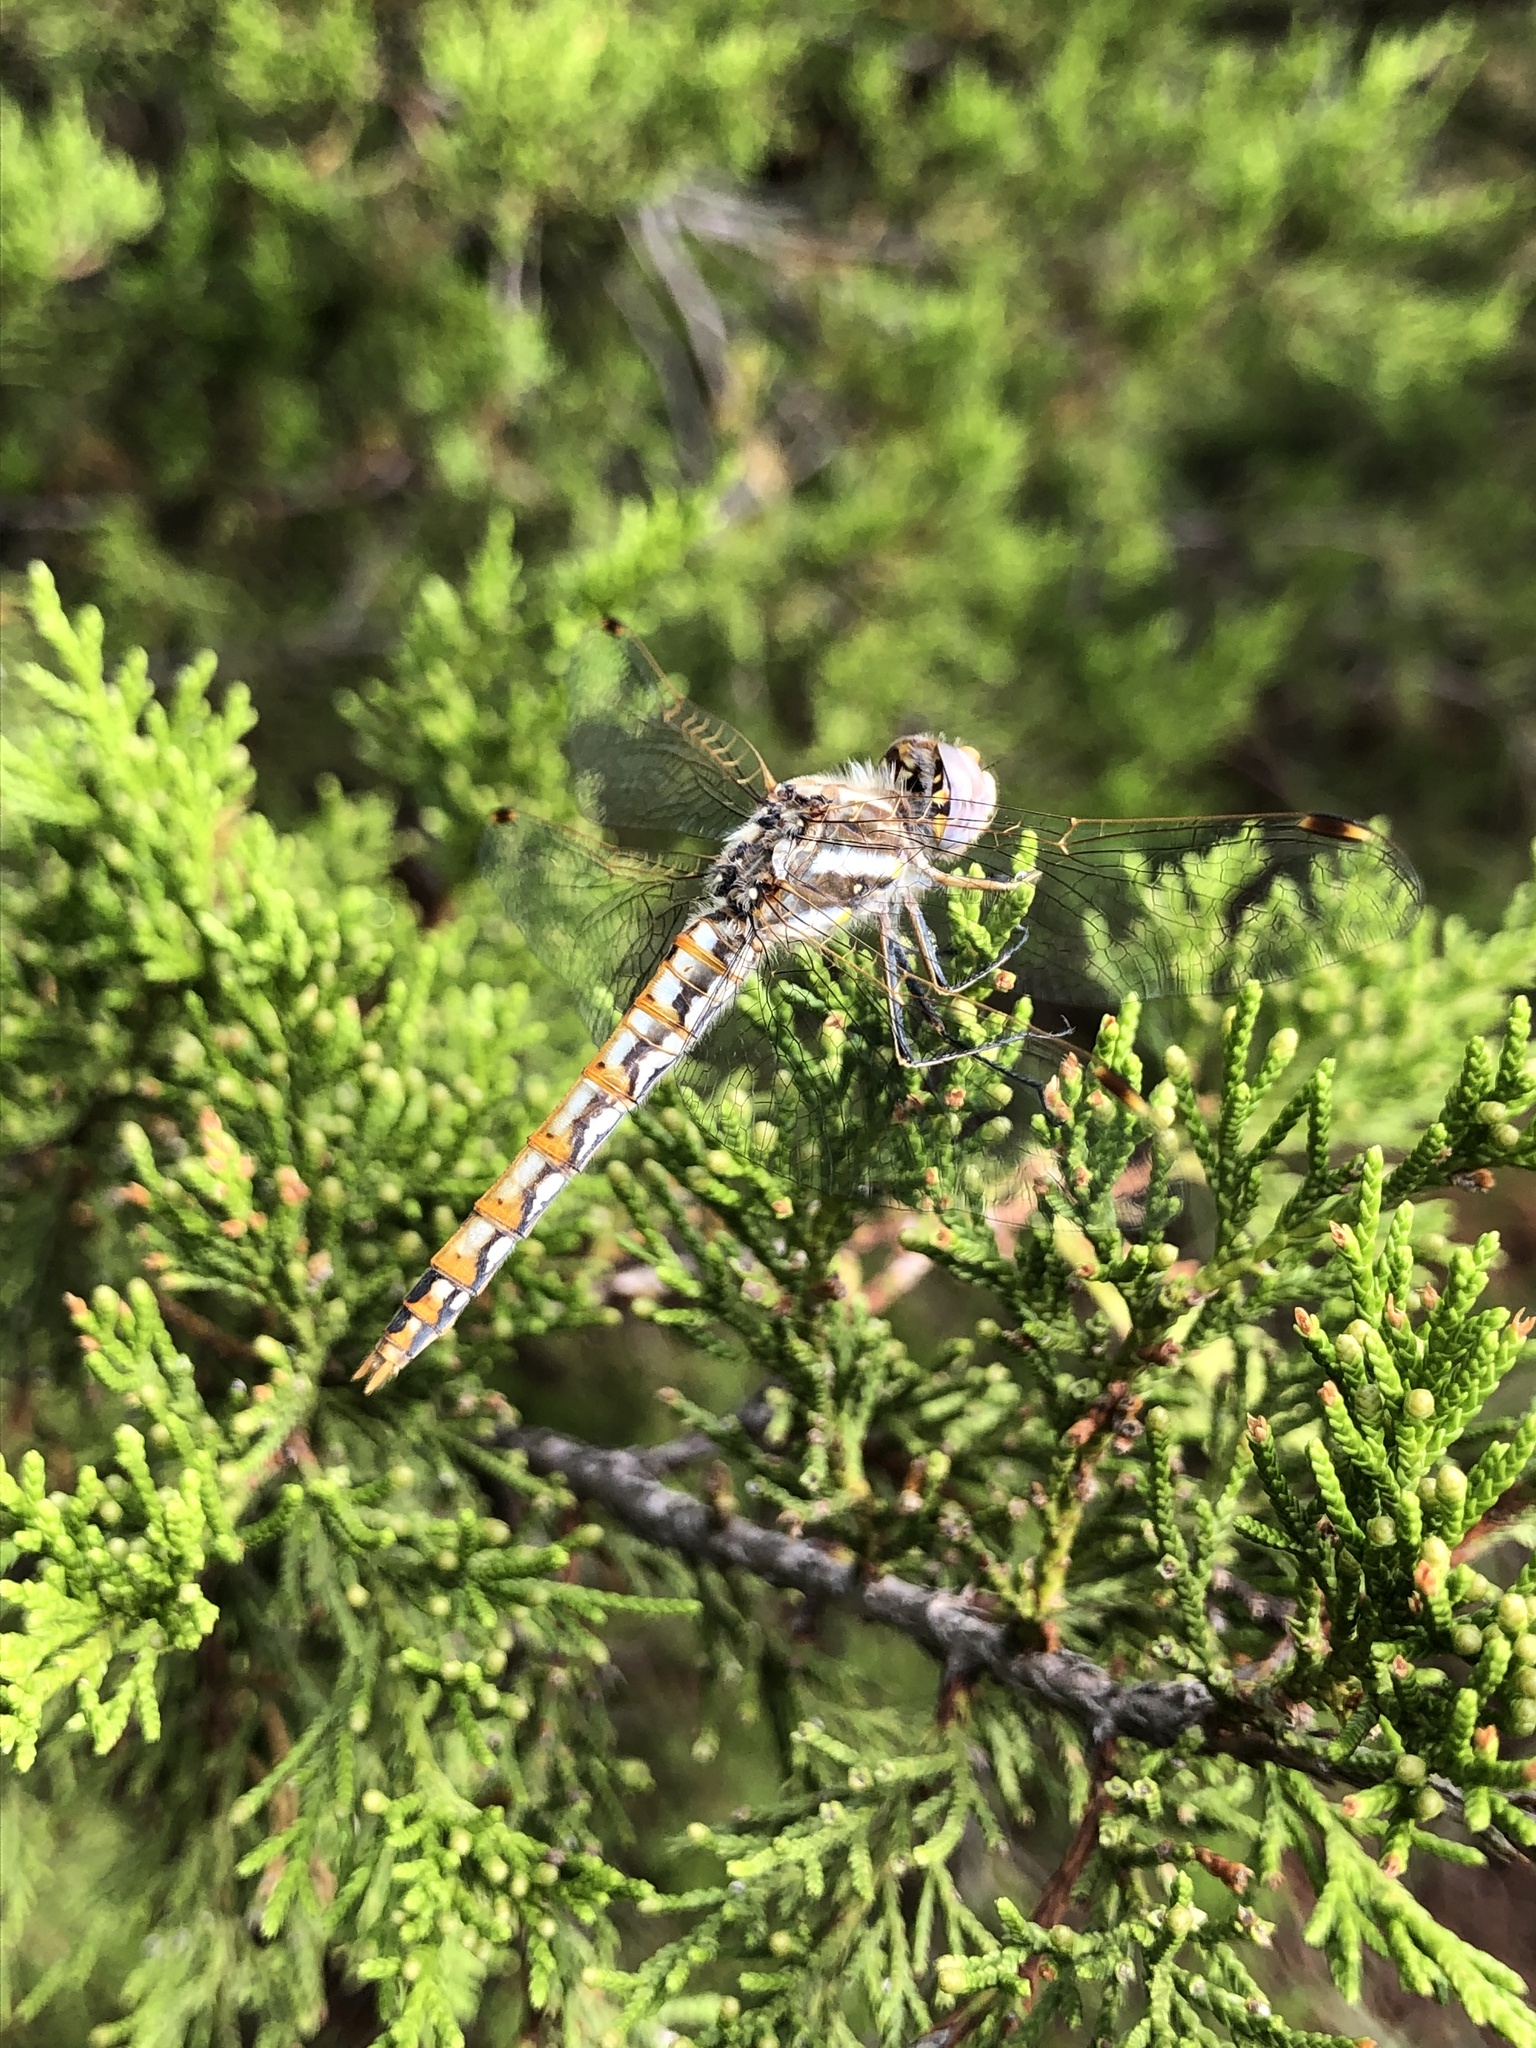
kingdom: Animalia
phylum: Arthropoda
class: Insecta
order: Odonata
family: Libellulidae
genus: Sympetrum
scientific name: Sympetrum corruptum
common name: Variegated meadowhawk
